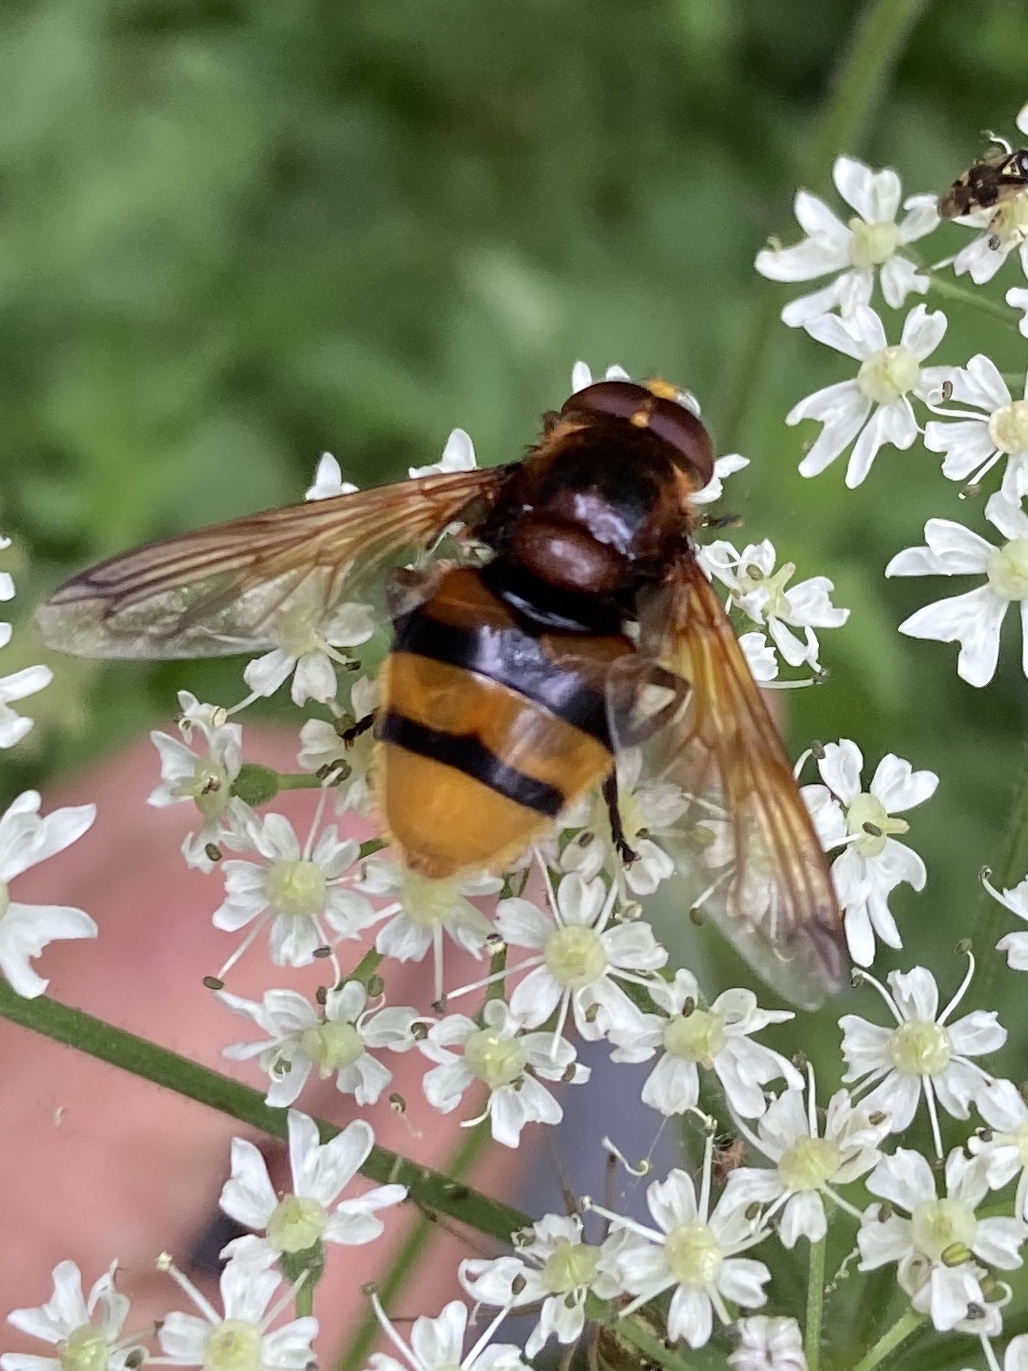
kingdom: Animalia
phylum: Arthropoda
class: Insecta
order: Diptera
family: Syrphidae
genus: Volucella
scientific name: Volucella zonaria
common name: Hornet hoverfly
